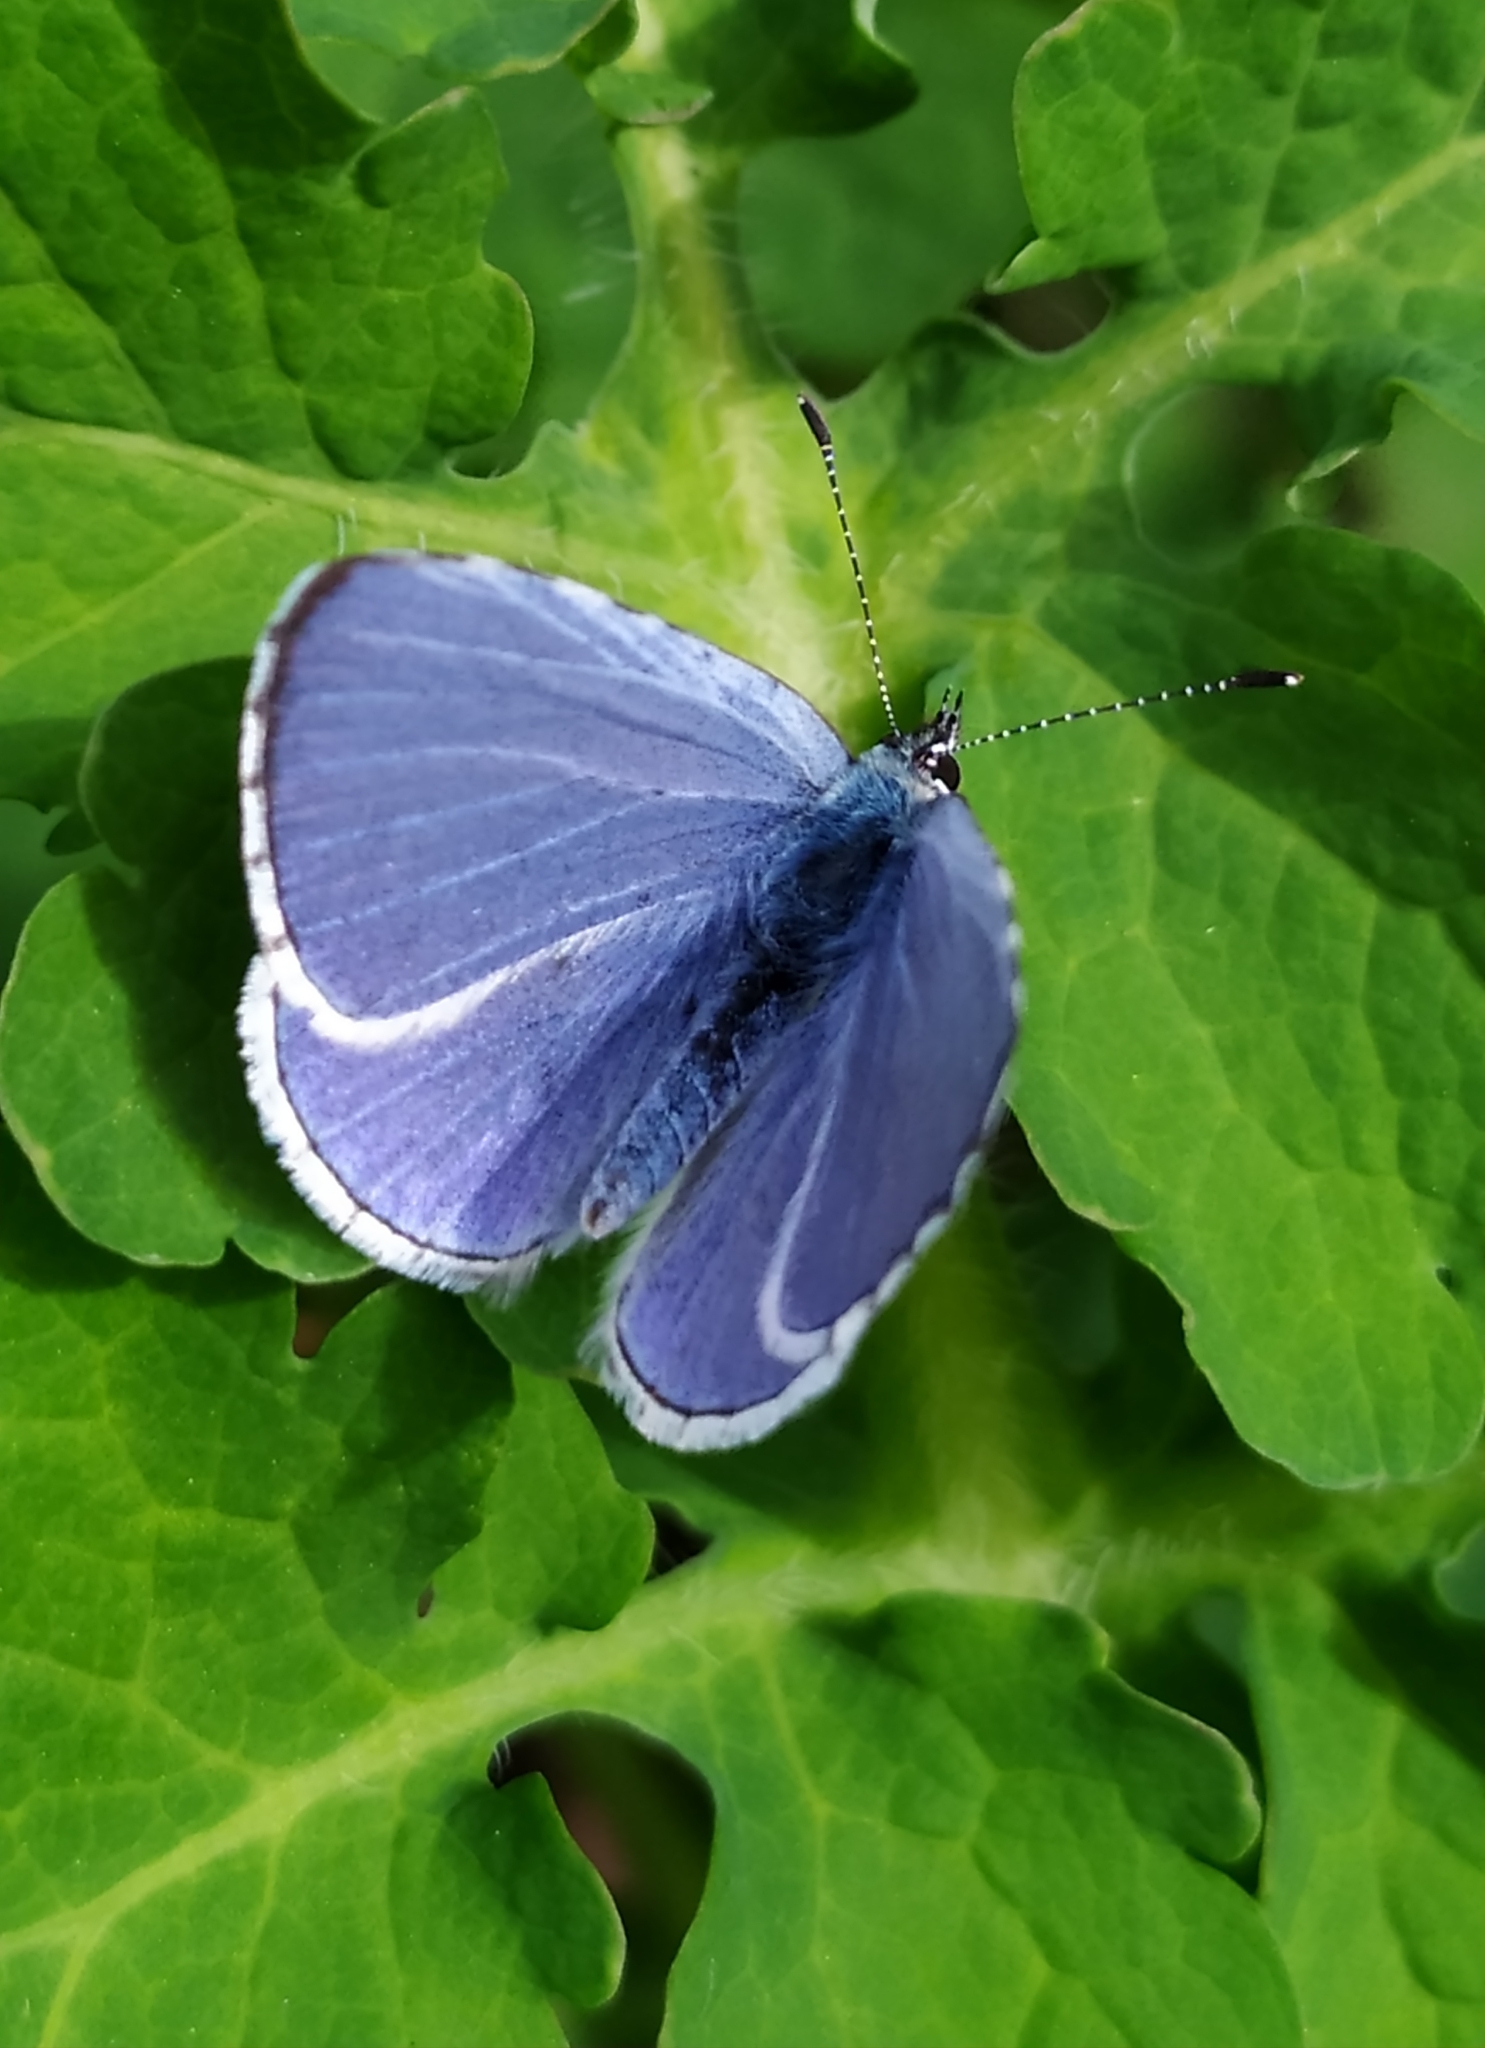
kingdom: Animalia
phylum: Arthropoda
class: Insecta
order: Lepidoptera
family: Lycaenidae
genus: Celastrina
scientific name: Celastrina argiolus
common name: Holly blue
